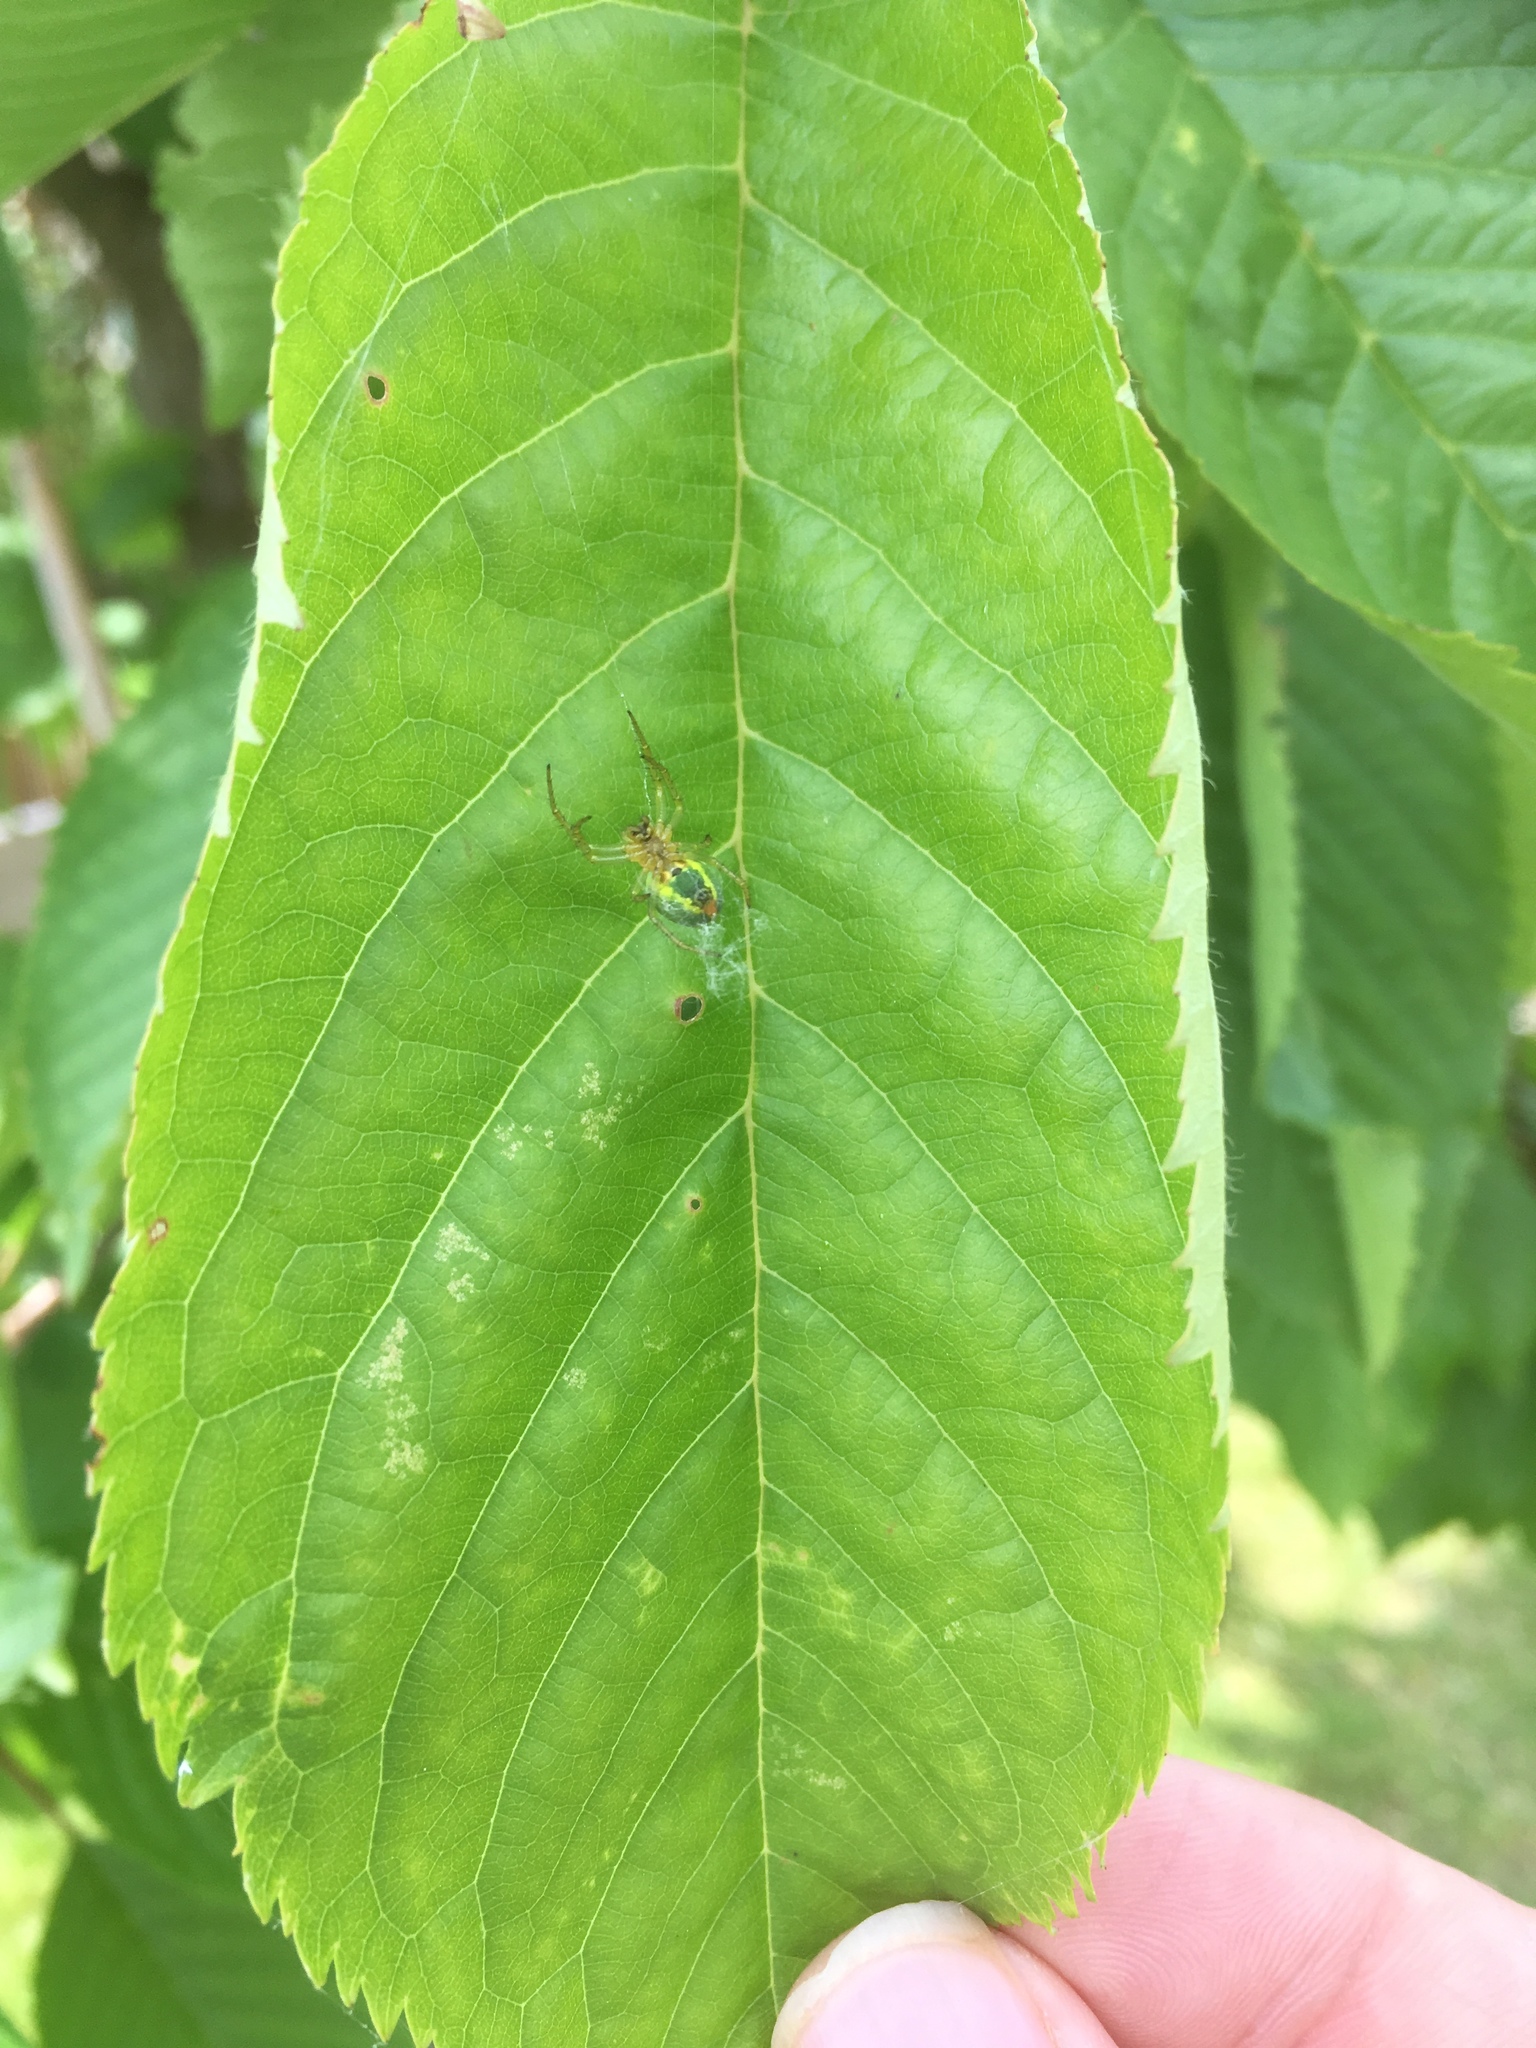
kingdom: Animalia
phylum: Arthropoda
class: Arachnida
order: Araneae
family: Araneidae
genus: Araniella
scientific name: Araniella
